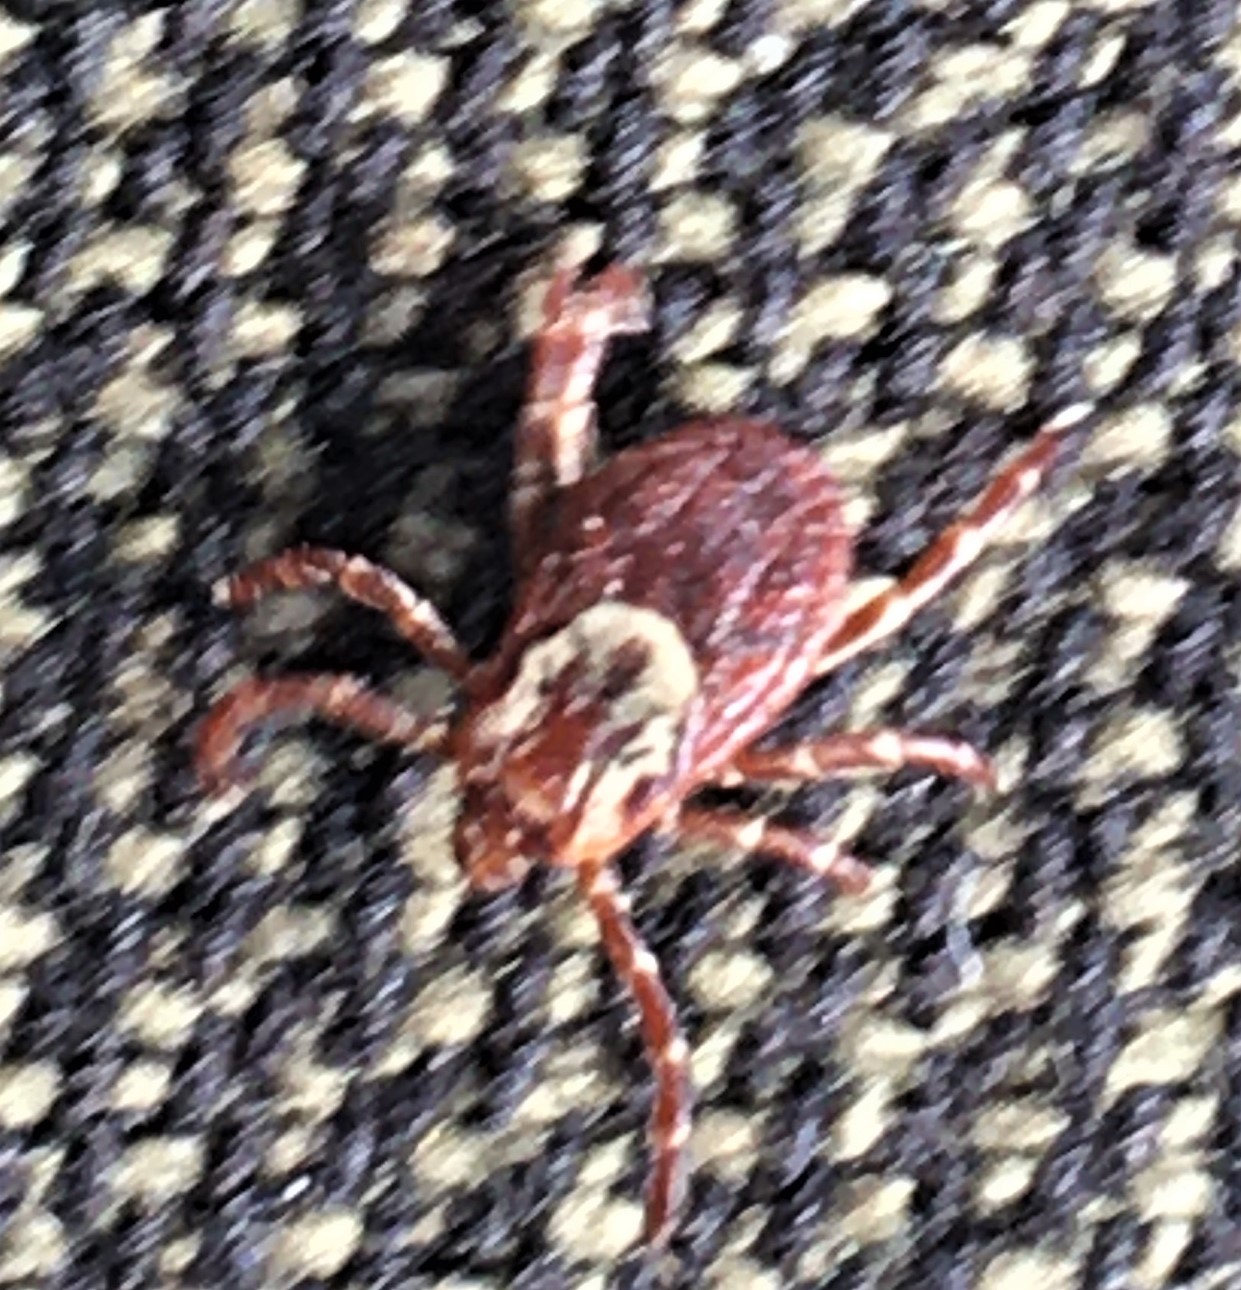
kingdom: Animalia
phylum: Arthropoda
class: Arachnida
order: Ixodida
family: Ixodidae
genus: Dermacentor
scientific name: Dermacentor variabilis
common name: American dog tick
